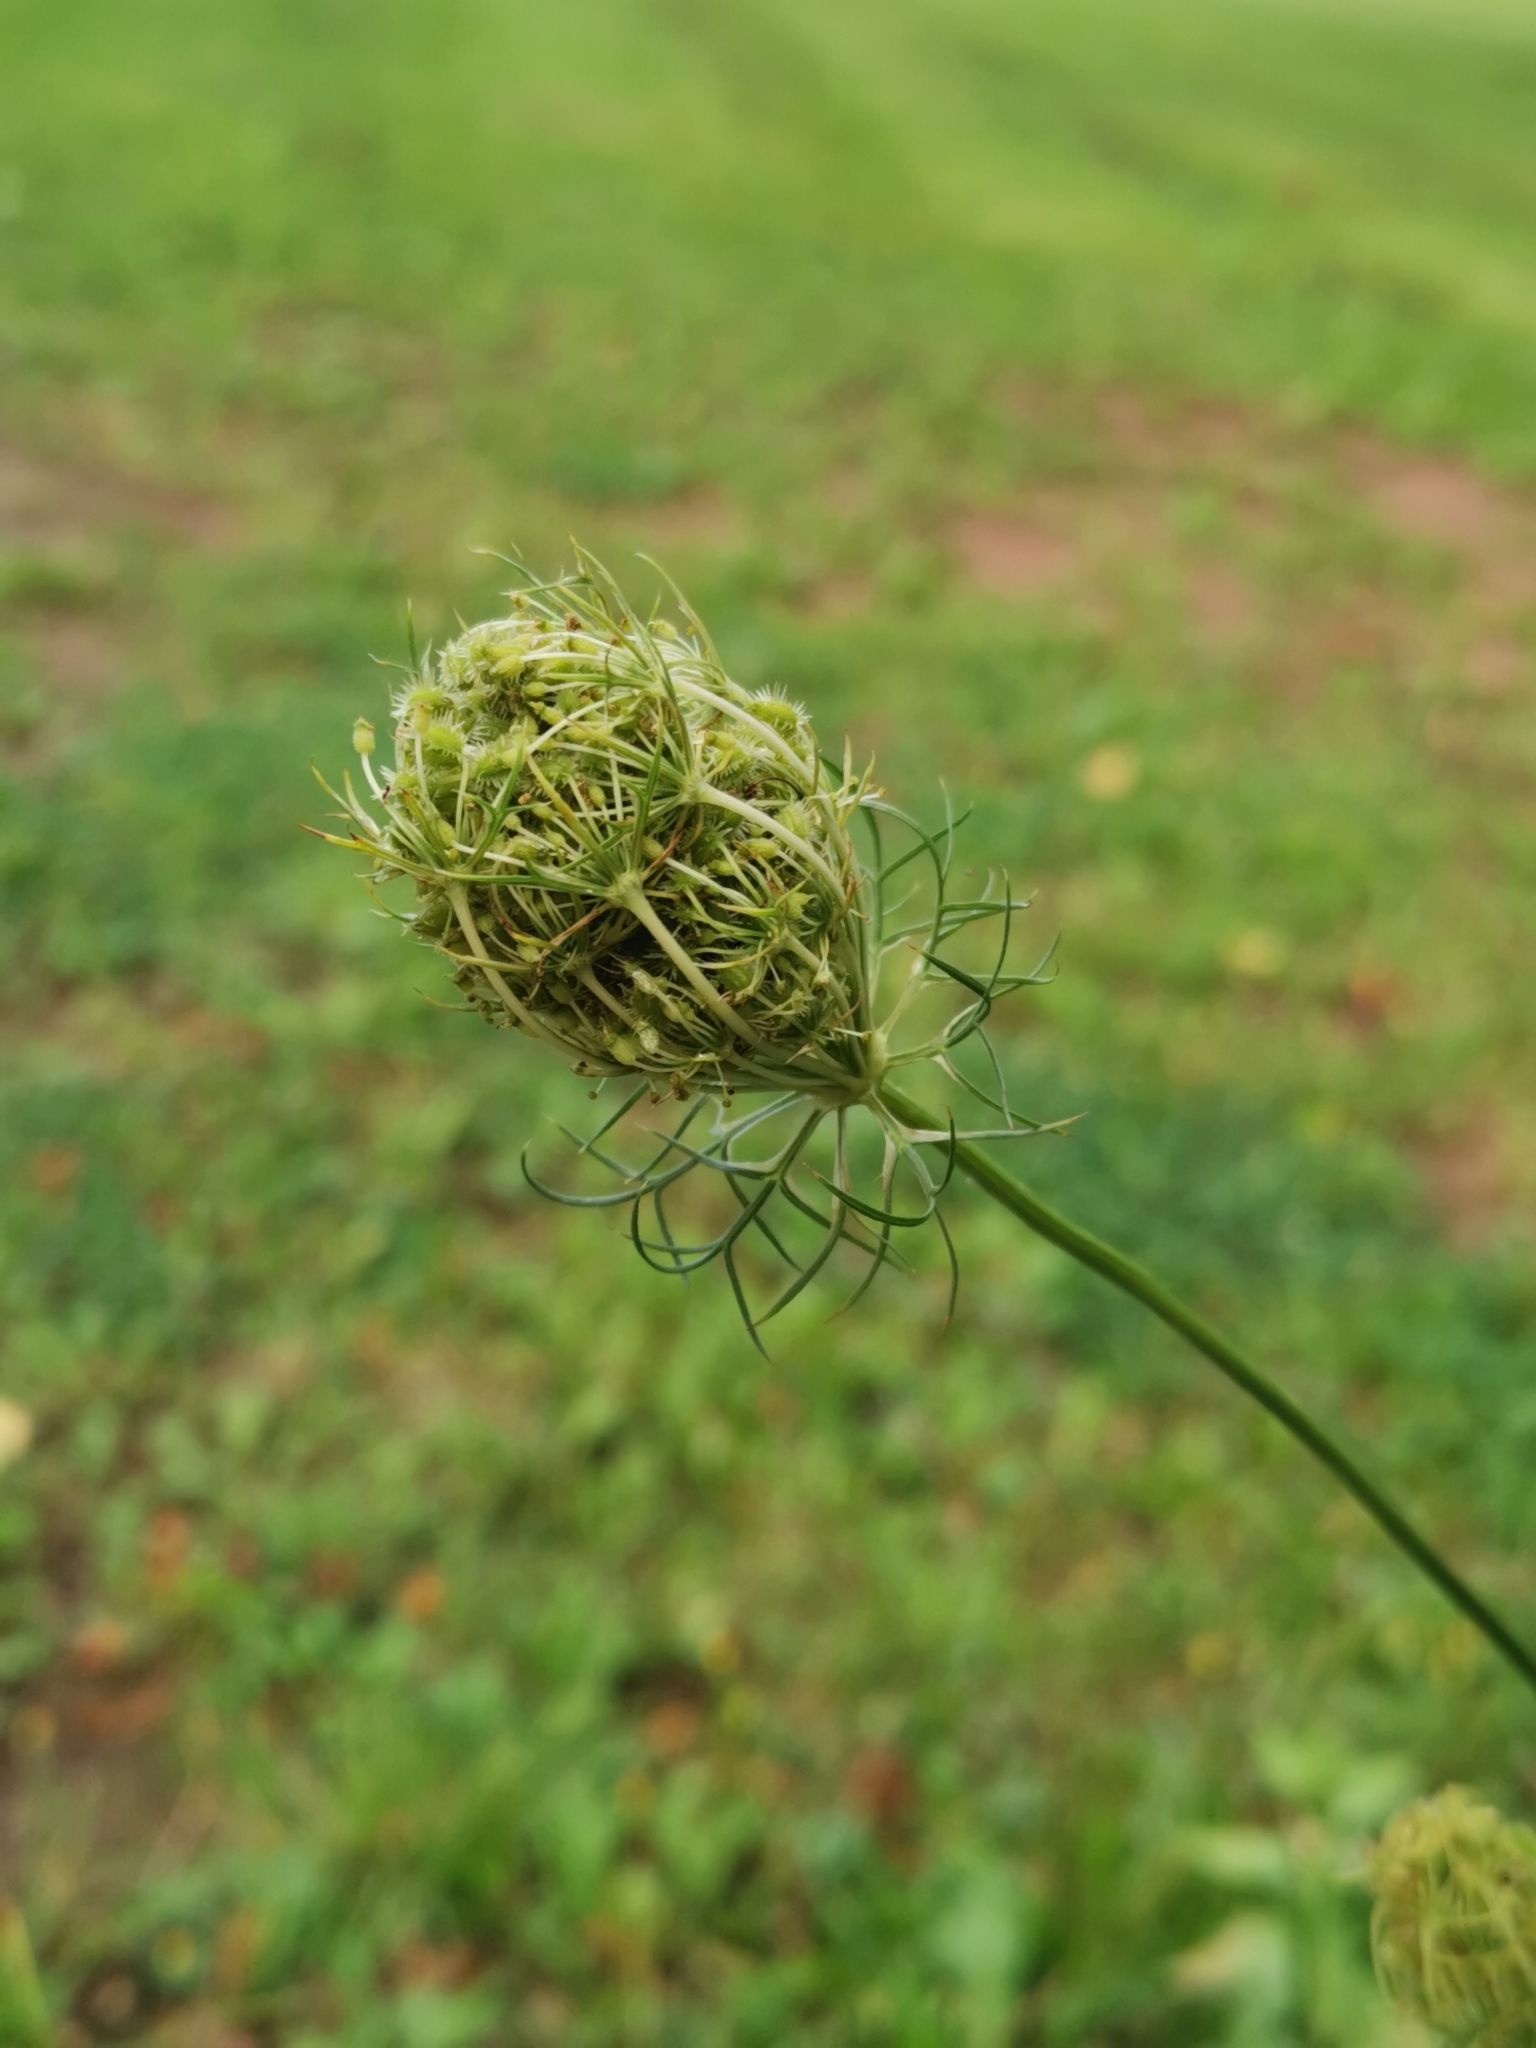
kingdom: Plantae
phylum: Tracheophyta
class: Magnoliopsida
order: Apiales
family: Apiaceae
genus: Daucus
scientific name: Daucus carota
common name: Wild carrot
